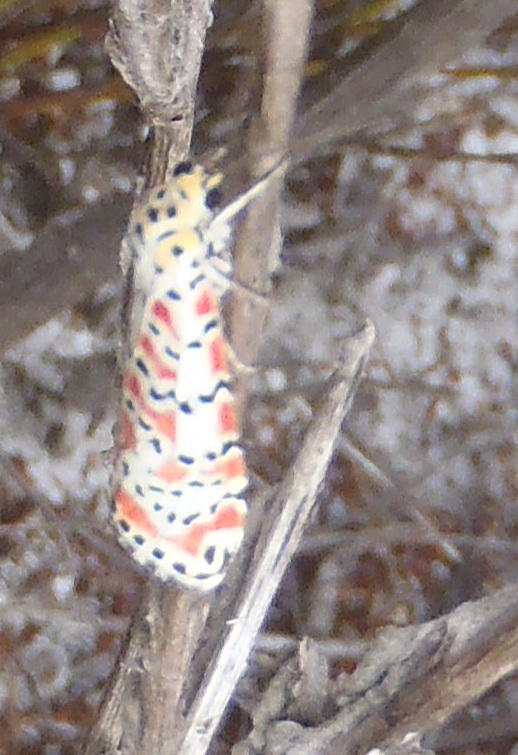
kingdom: Animalia
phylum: Arthropoda
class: Insecta
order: Lepidoptera
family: Erebidae
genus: Utetheisa
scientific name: Utetheisa pulchella
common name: Crimson speckled
